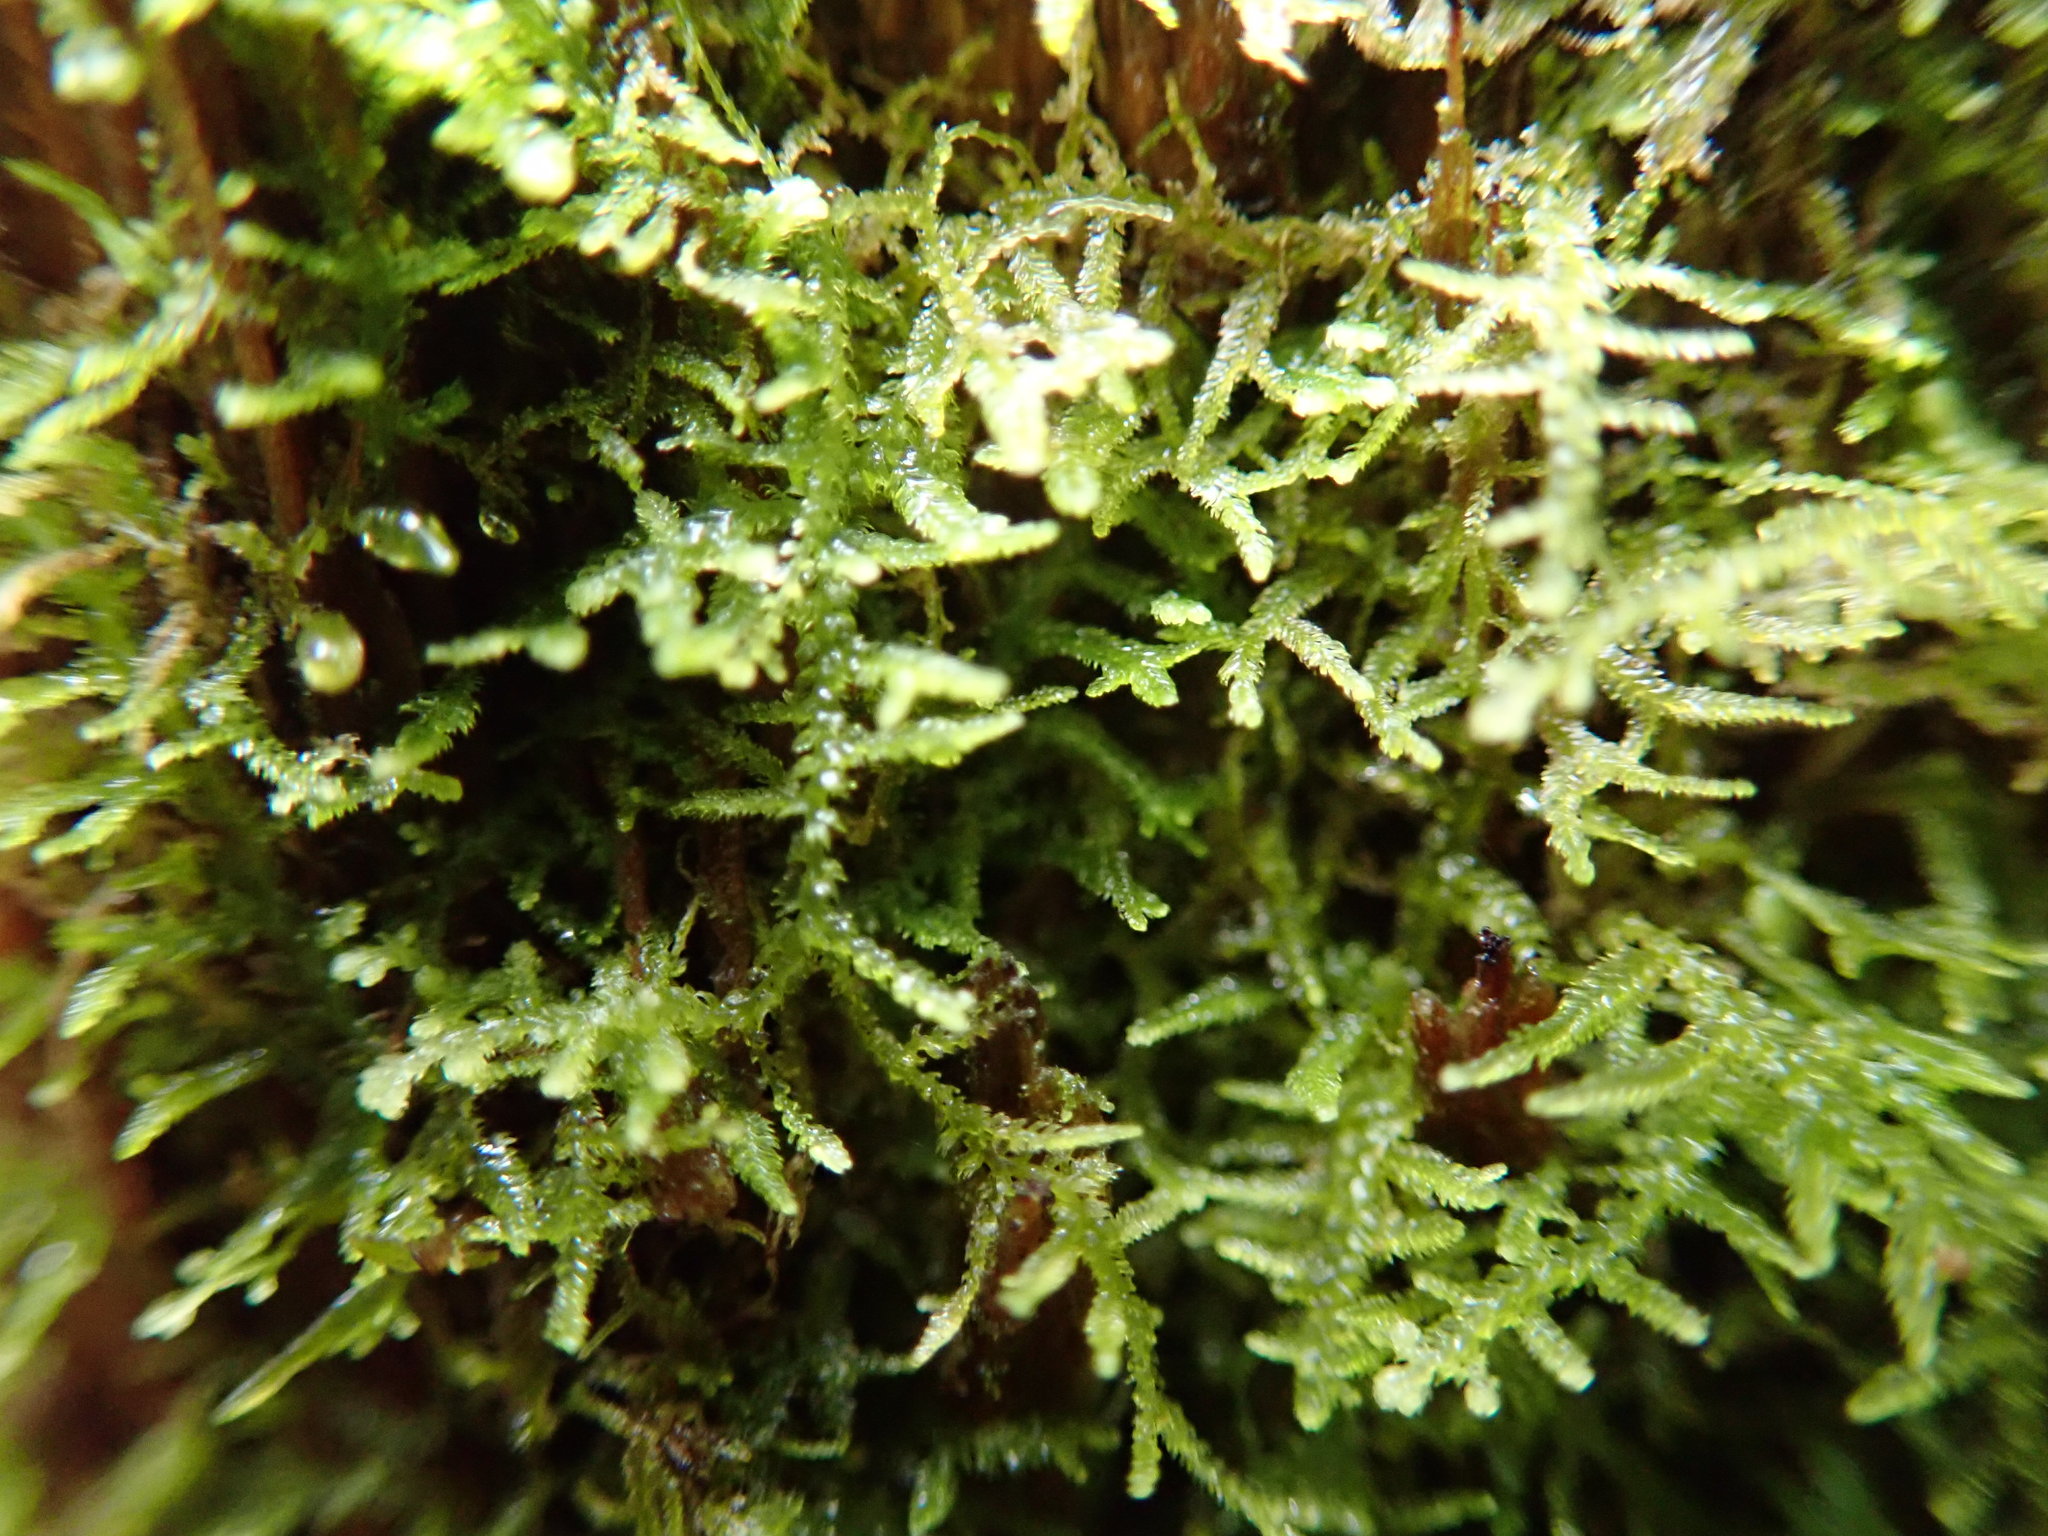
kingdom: Plantae
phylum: Marchantiophyta
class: Jungermanniopsida
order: Jungermanniales
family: Lepidoziaceae
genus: Lepidozia
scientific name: Lepidozia reptans
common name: Creeping fingerwort
